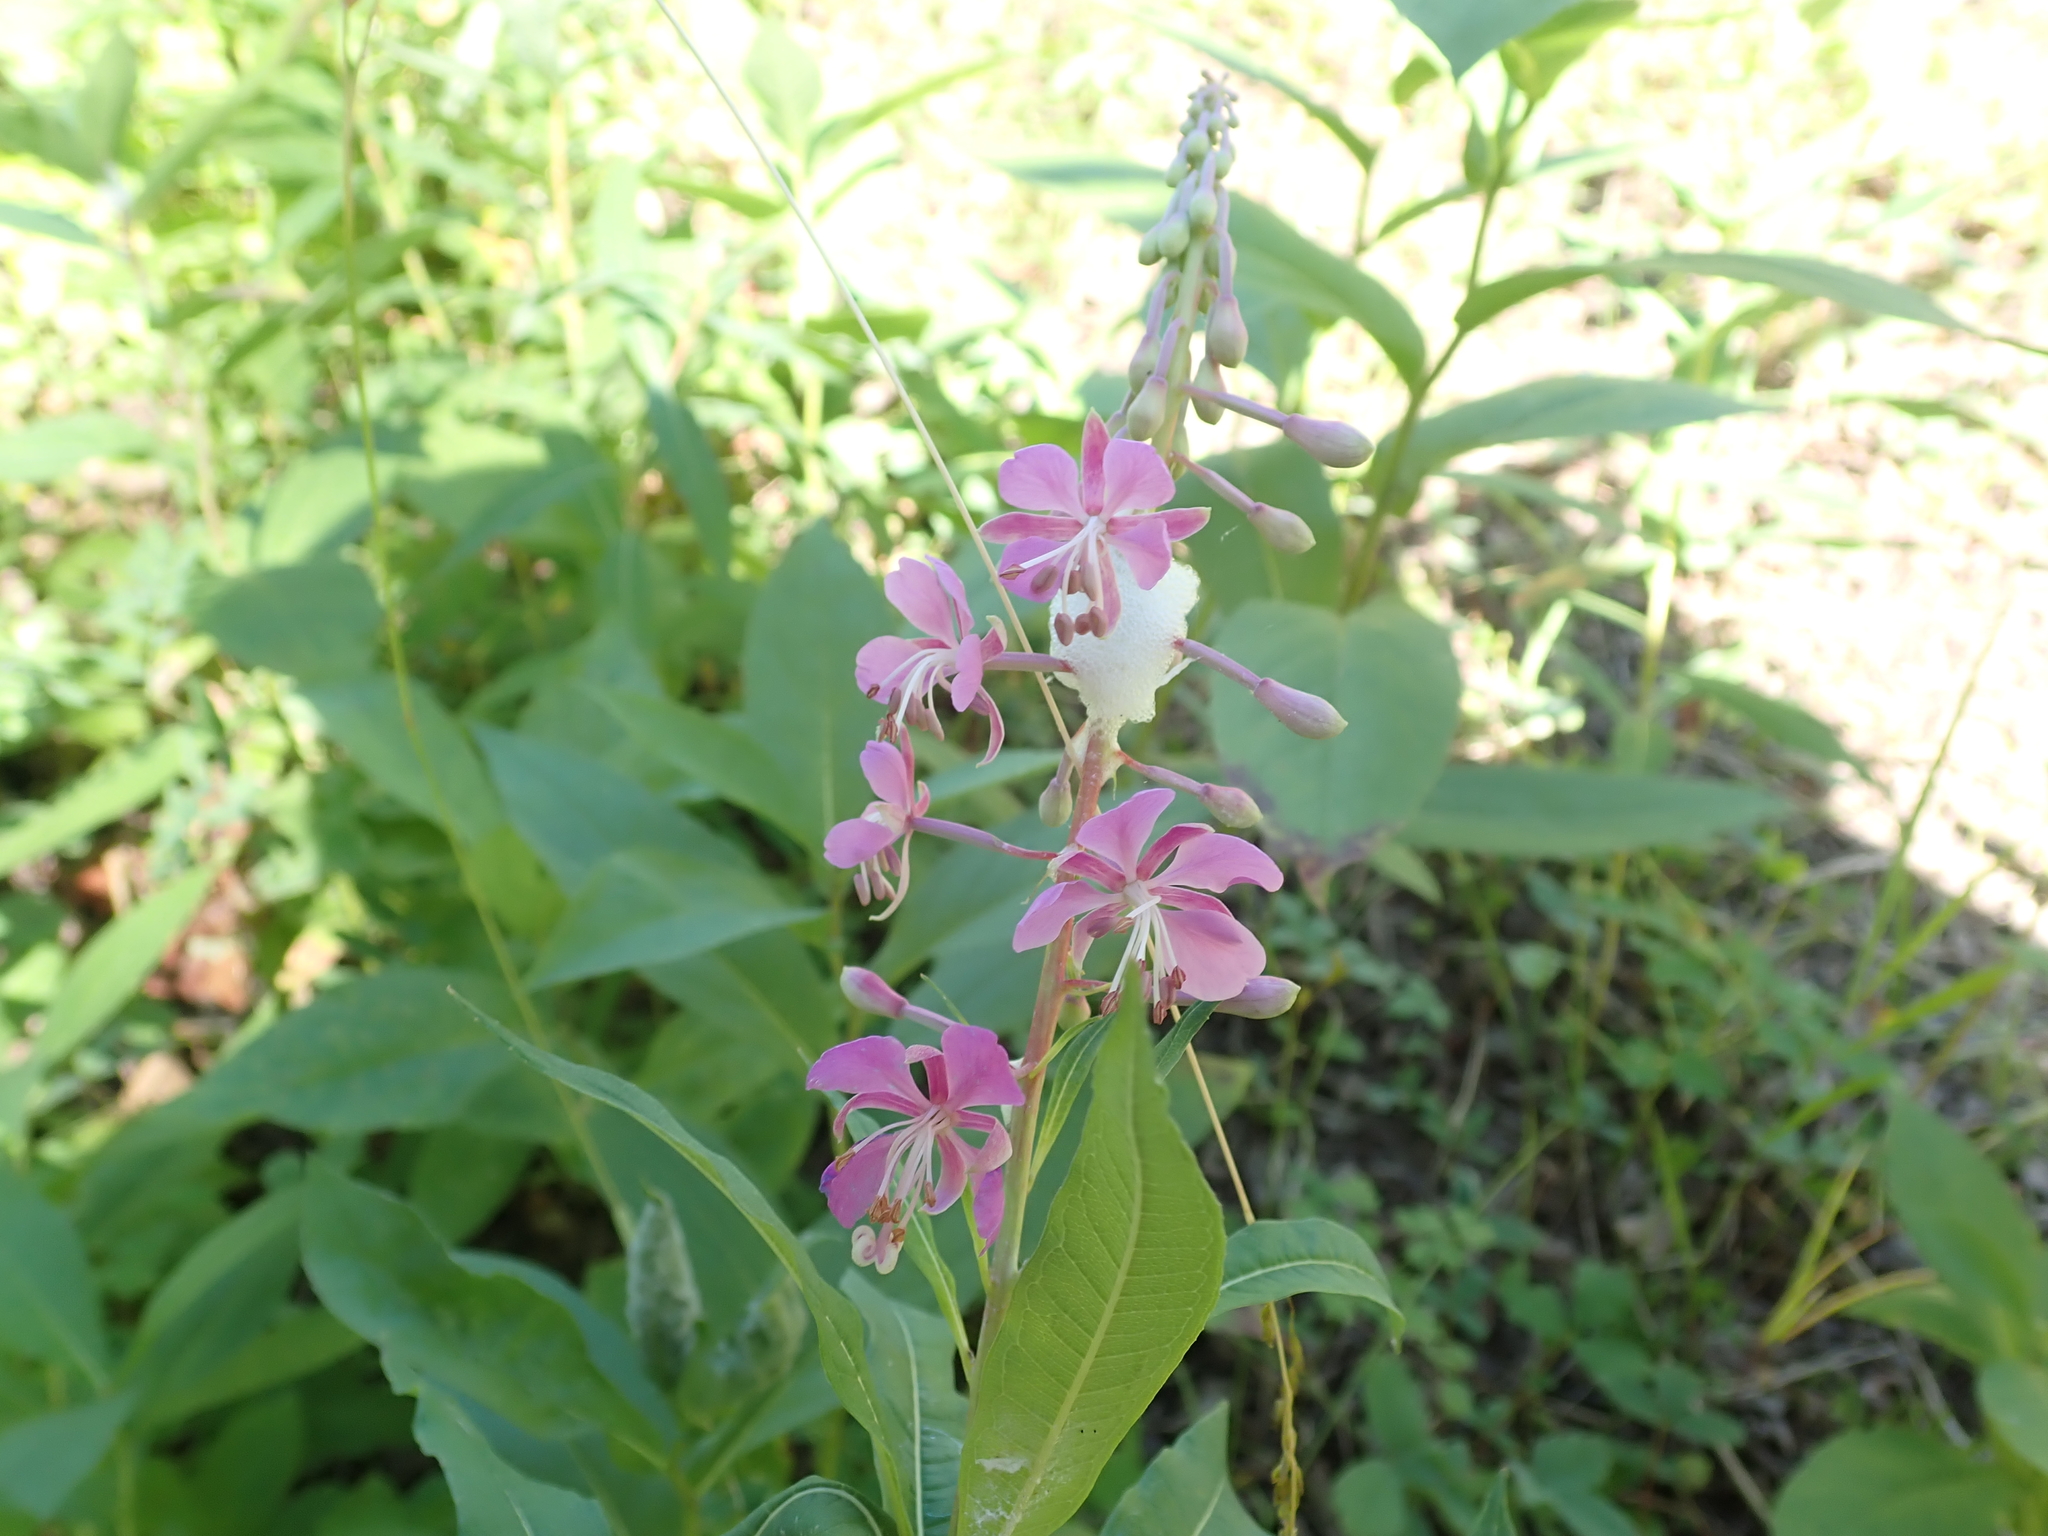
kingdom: Plantae
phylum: Tracheophyta
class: Magnoliopsida
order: Myrtales
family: Onagraceae
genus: Chamaenerion
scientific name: Chamaenerion angustifolium
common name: Fireweed
